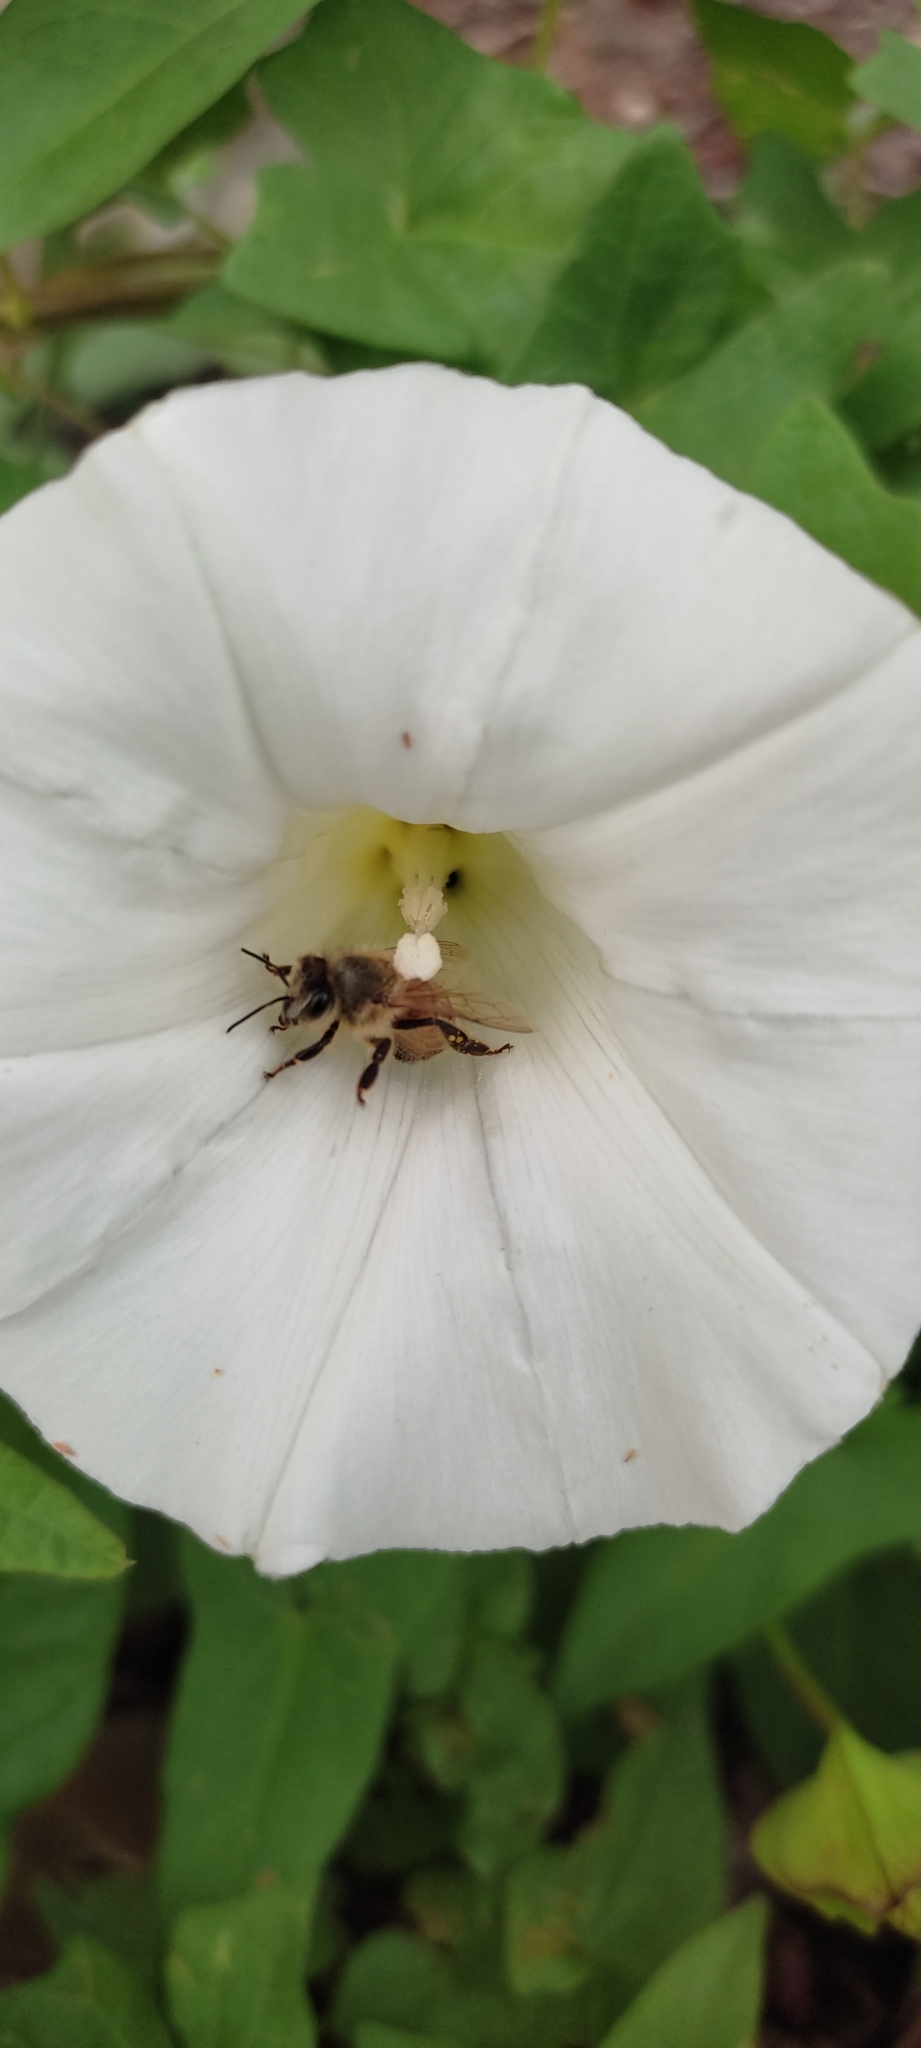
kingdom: Animalia
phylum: Arthropoda
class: Insecta
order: Hymenoptera
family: Apidae
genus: Apis
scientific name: Apis mellifera
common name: Honey bee
